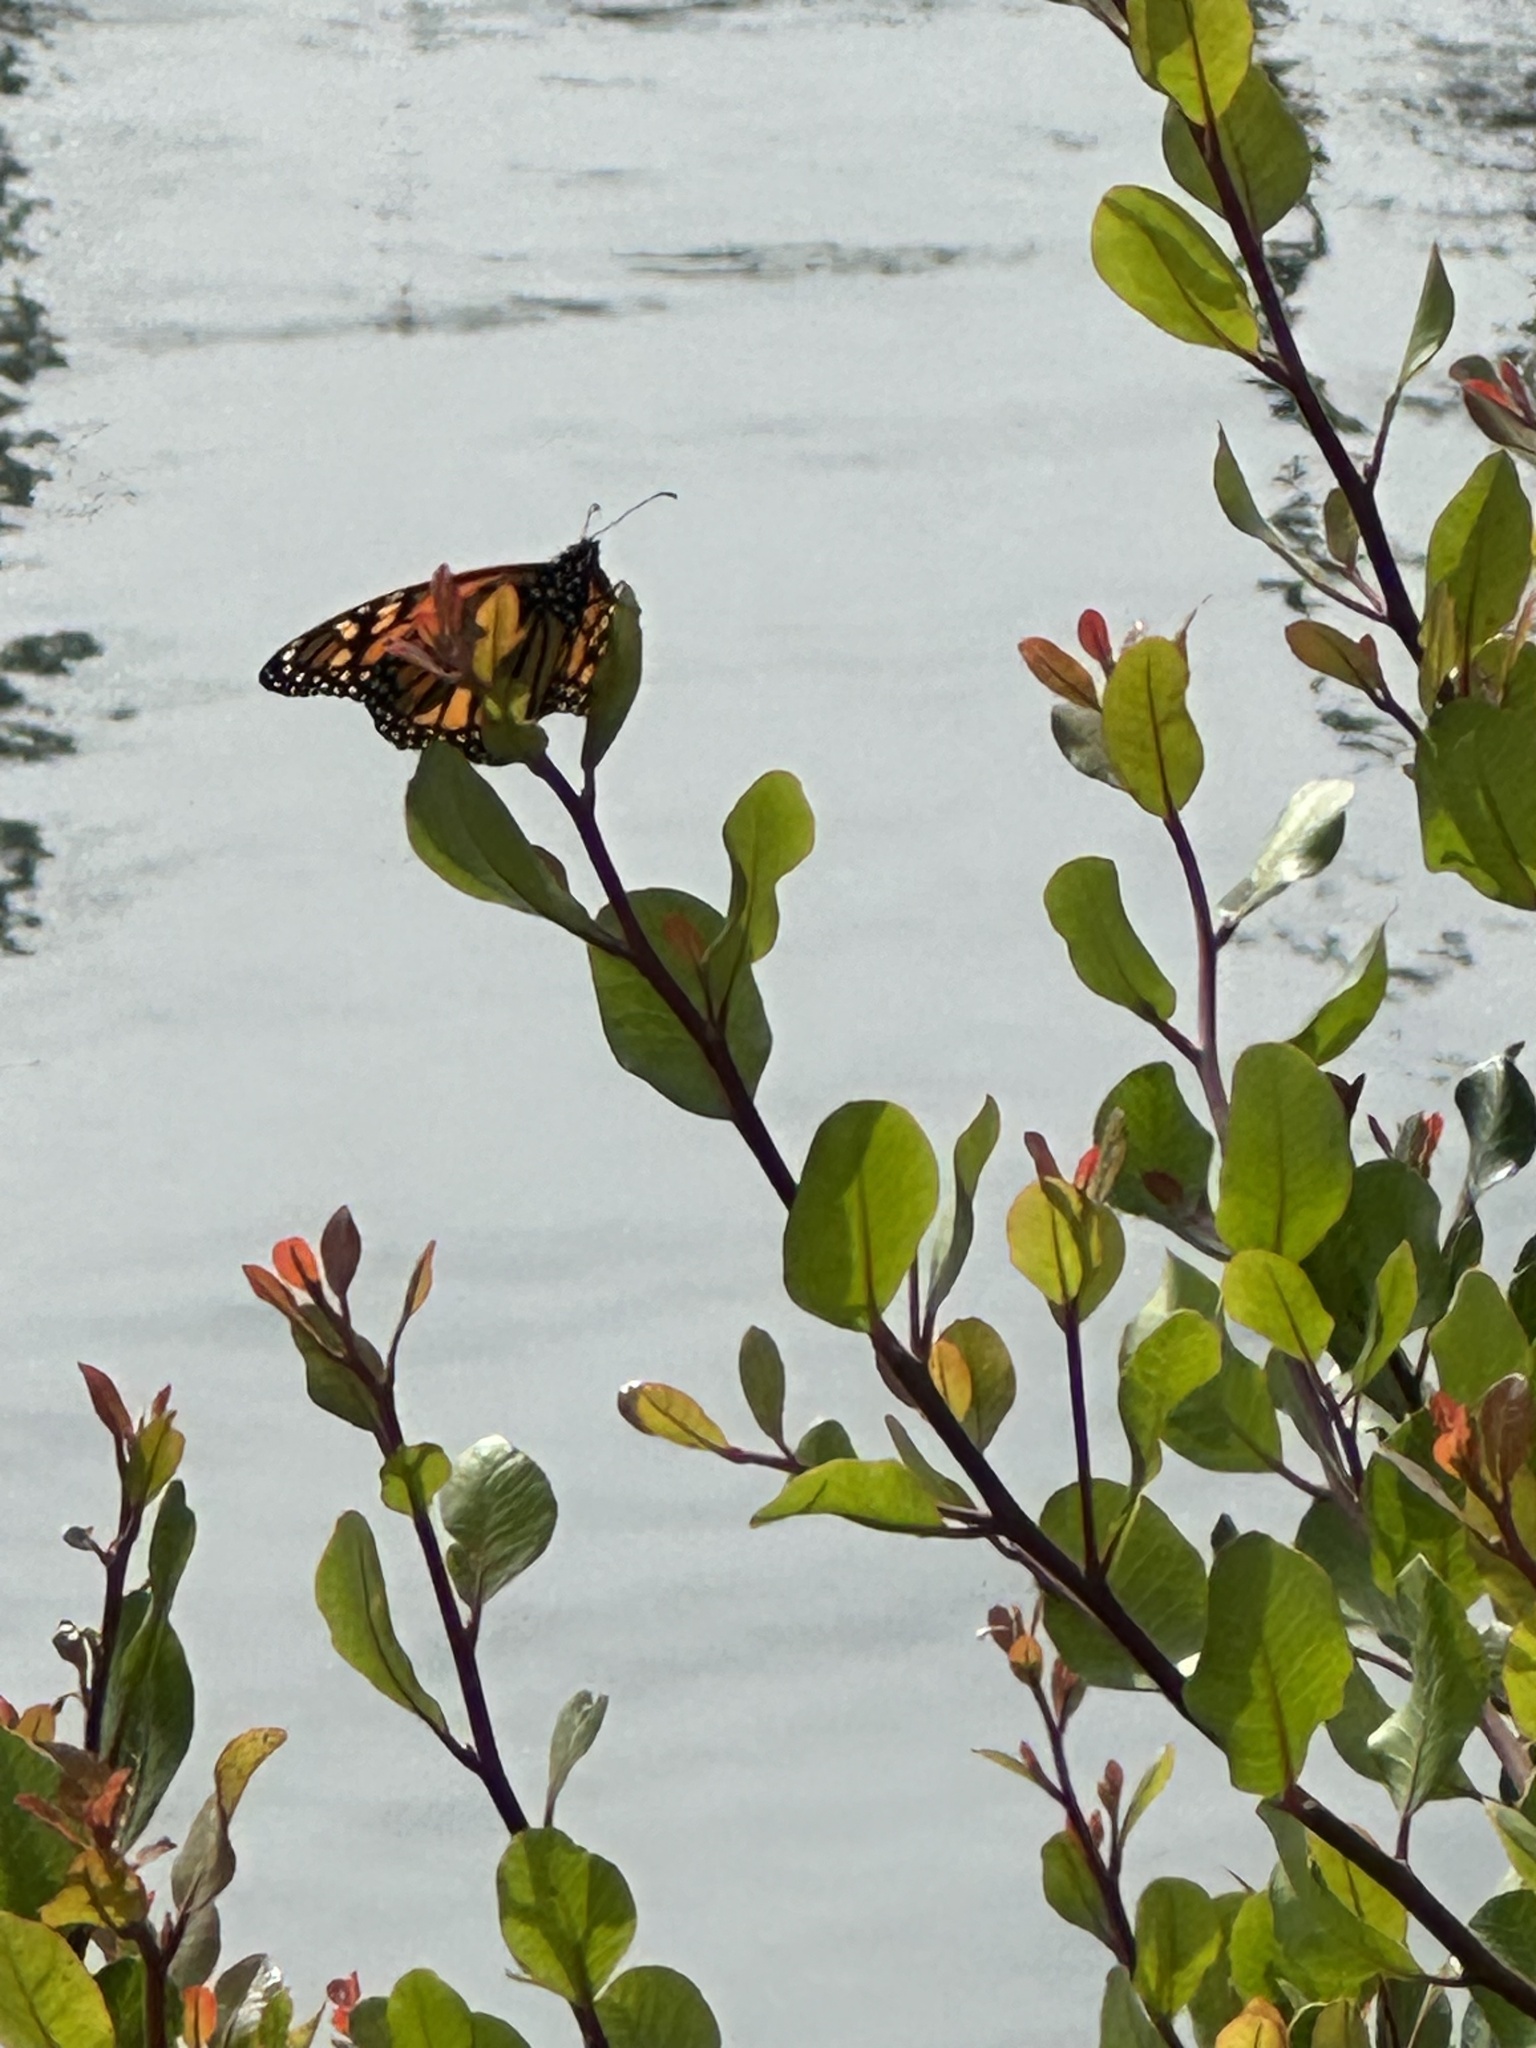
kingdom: Animalia
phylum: Arthropoda
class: Insecta
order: Lepidoptera
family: Nymphalidae
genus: Danaus
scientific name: Danaus plexippus
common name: Monarch
